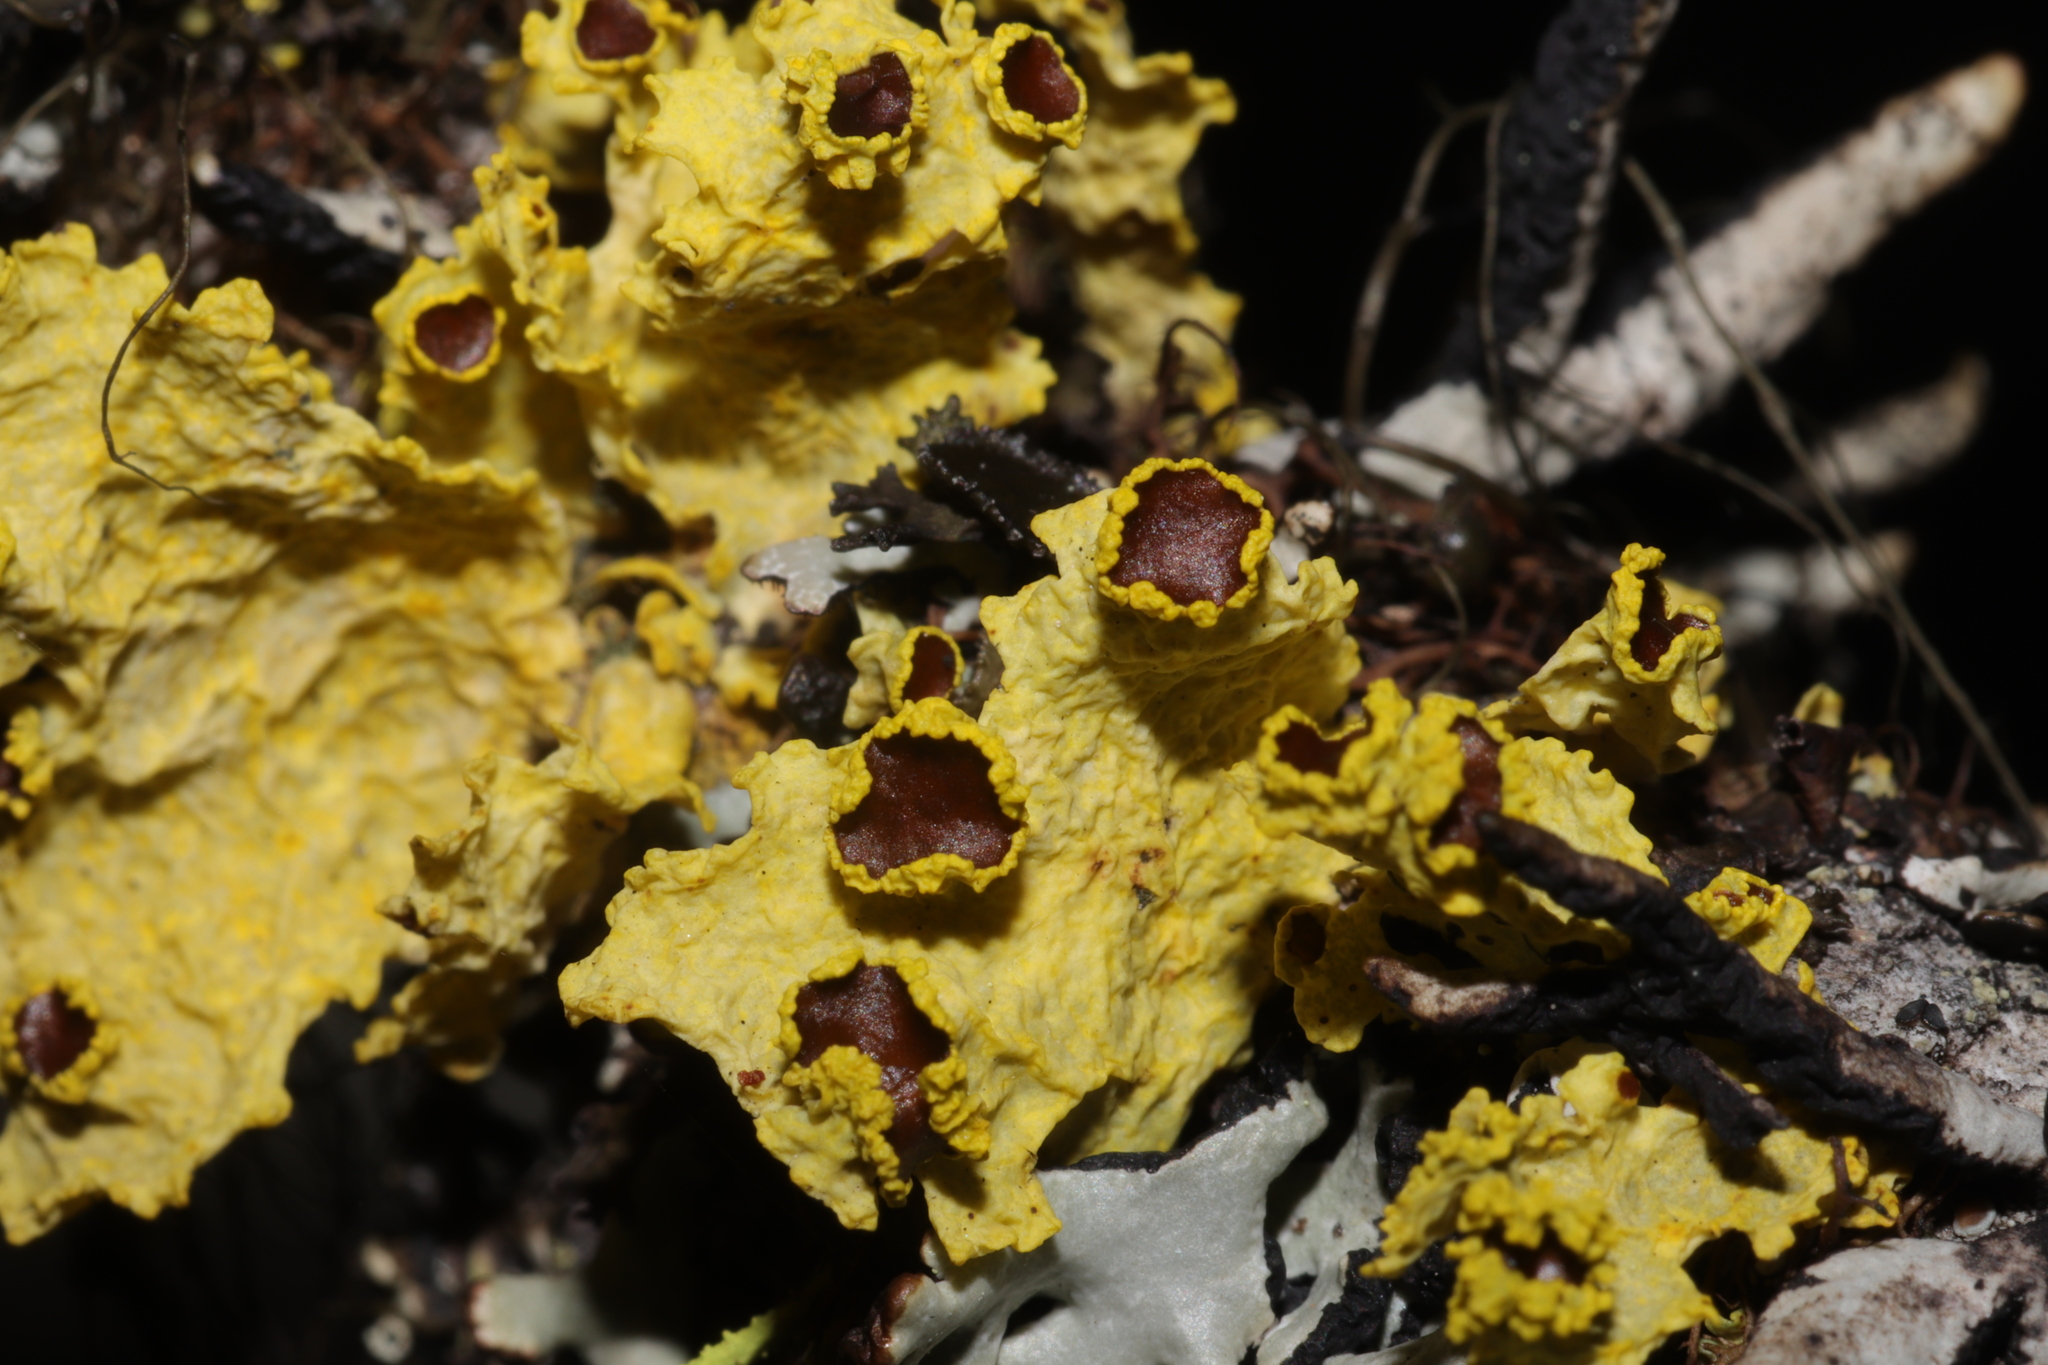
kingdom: Fungi
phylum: Ascomycota
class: Lecanoromycetes
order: Lecanorales
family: Parmeliaceae
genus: Vulpicida
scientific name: Vulpicida canadensis
